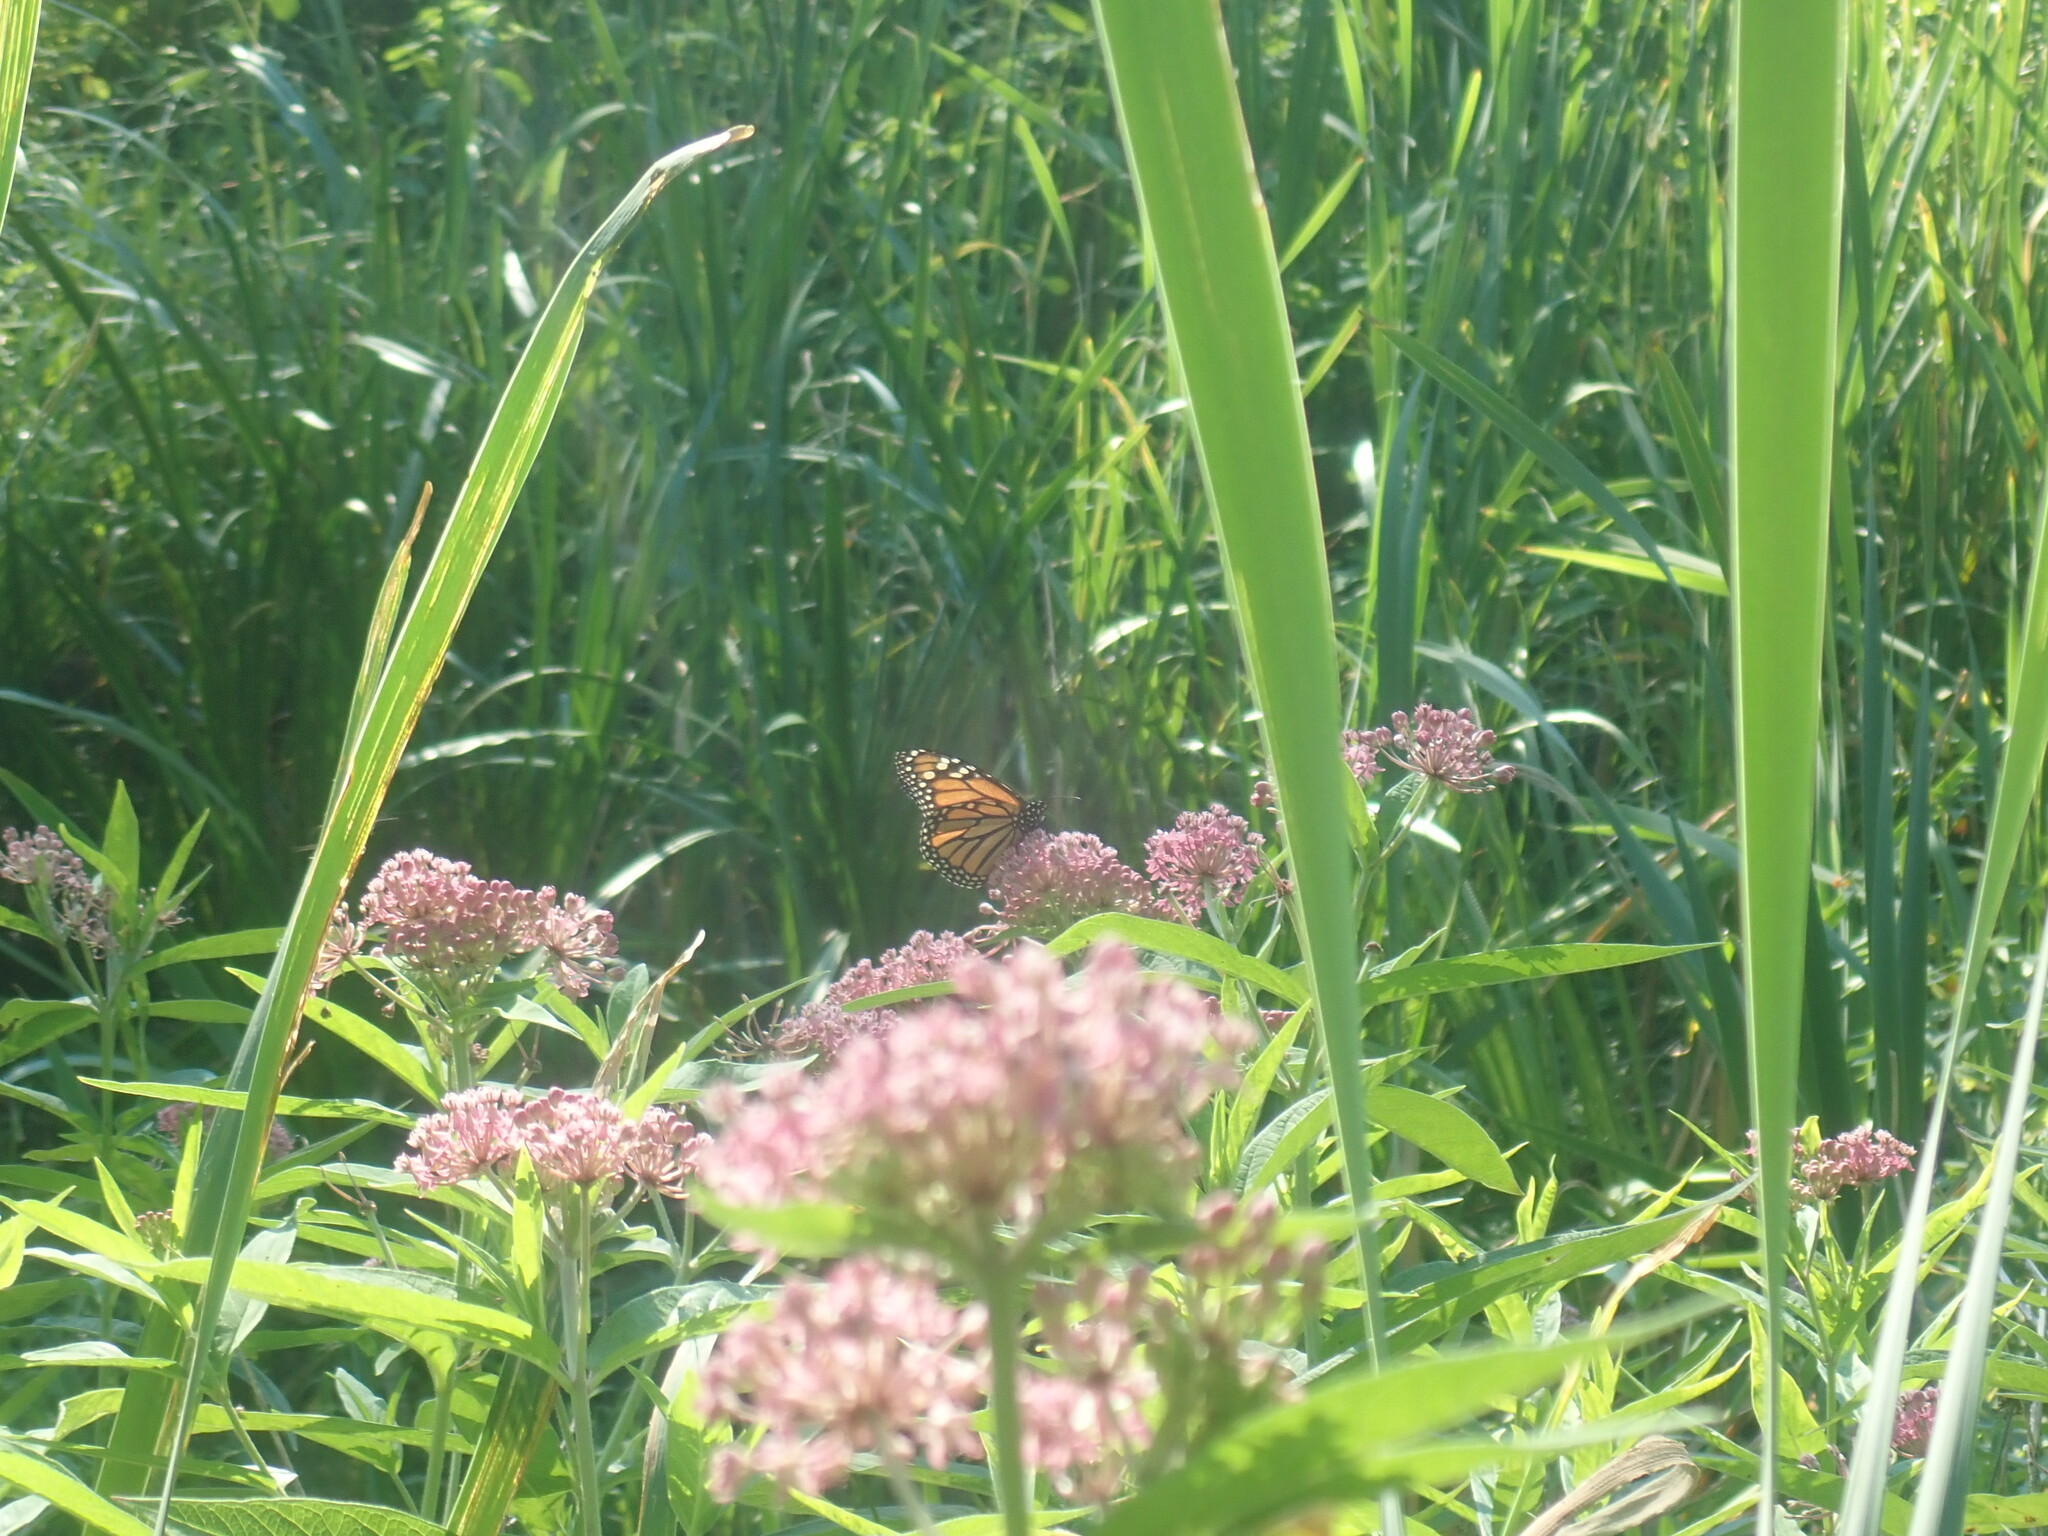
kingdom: Animalia
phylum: Arthropoda
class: Insecta
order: Lepidoptera
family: Nymphalidae
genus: Danaus
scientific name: Danaus plexippus
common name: Monarch
